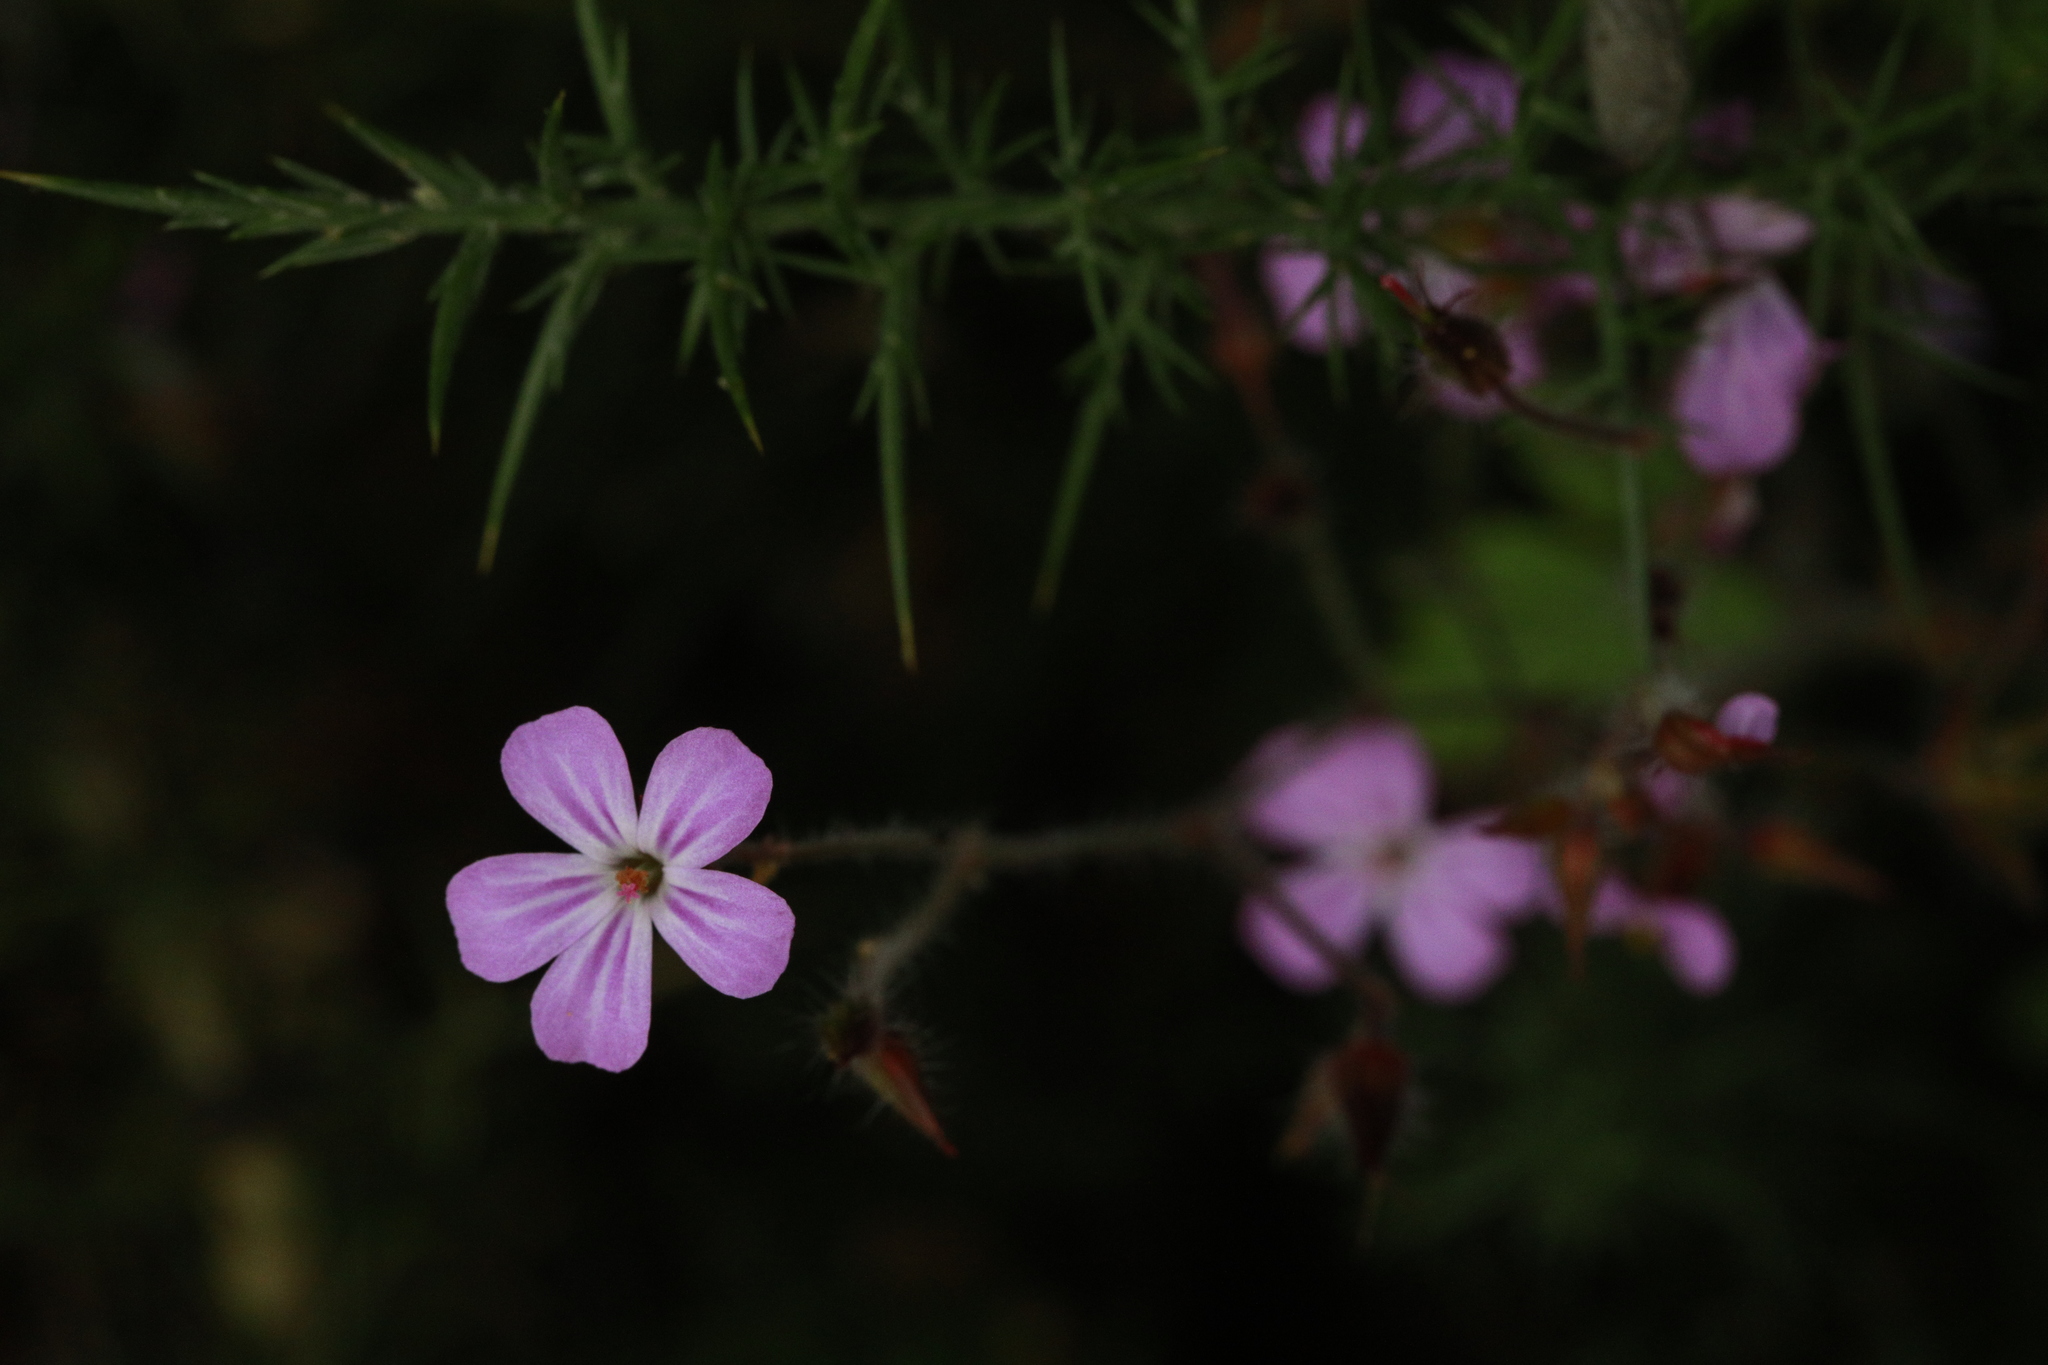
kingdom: Plantae
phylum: Tracheophyta
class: Magnoliopsida
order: Geraniales
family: Geraniaceae
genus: Geranium
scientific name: Geranium robertianum
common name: Herb-robert
